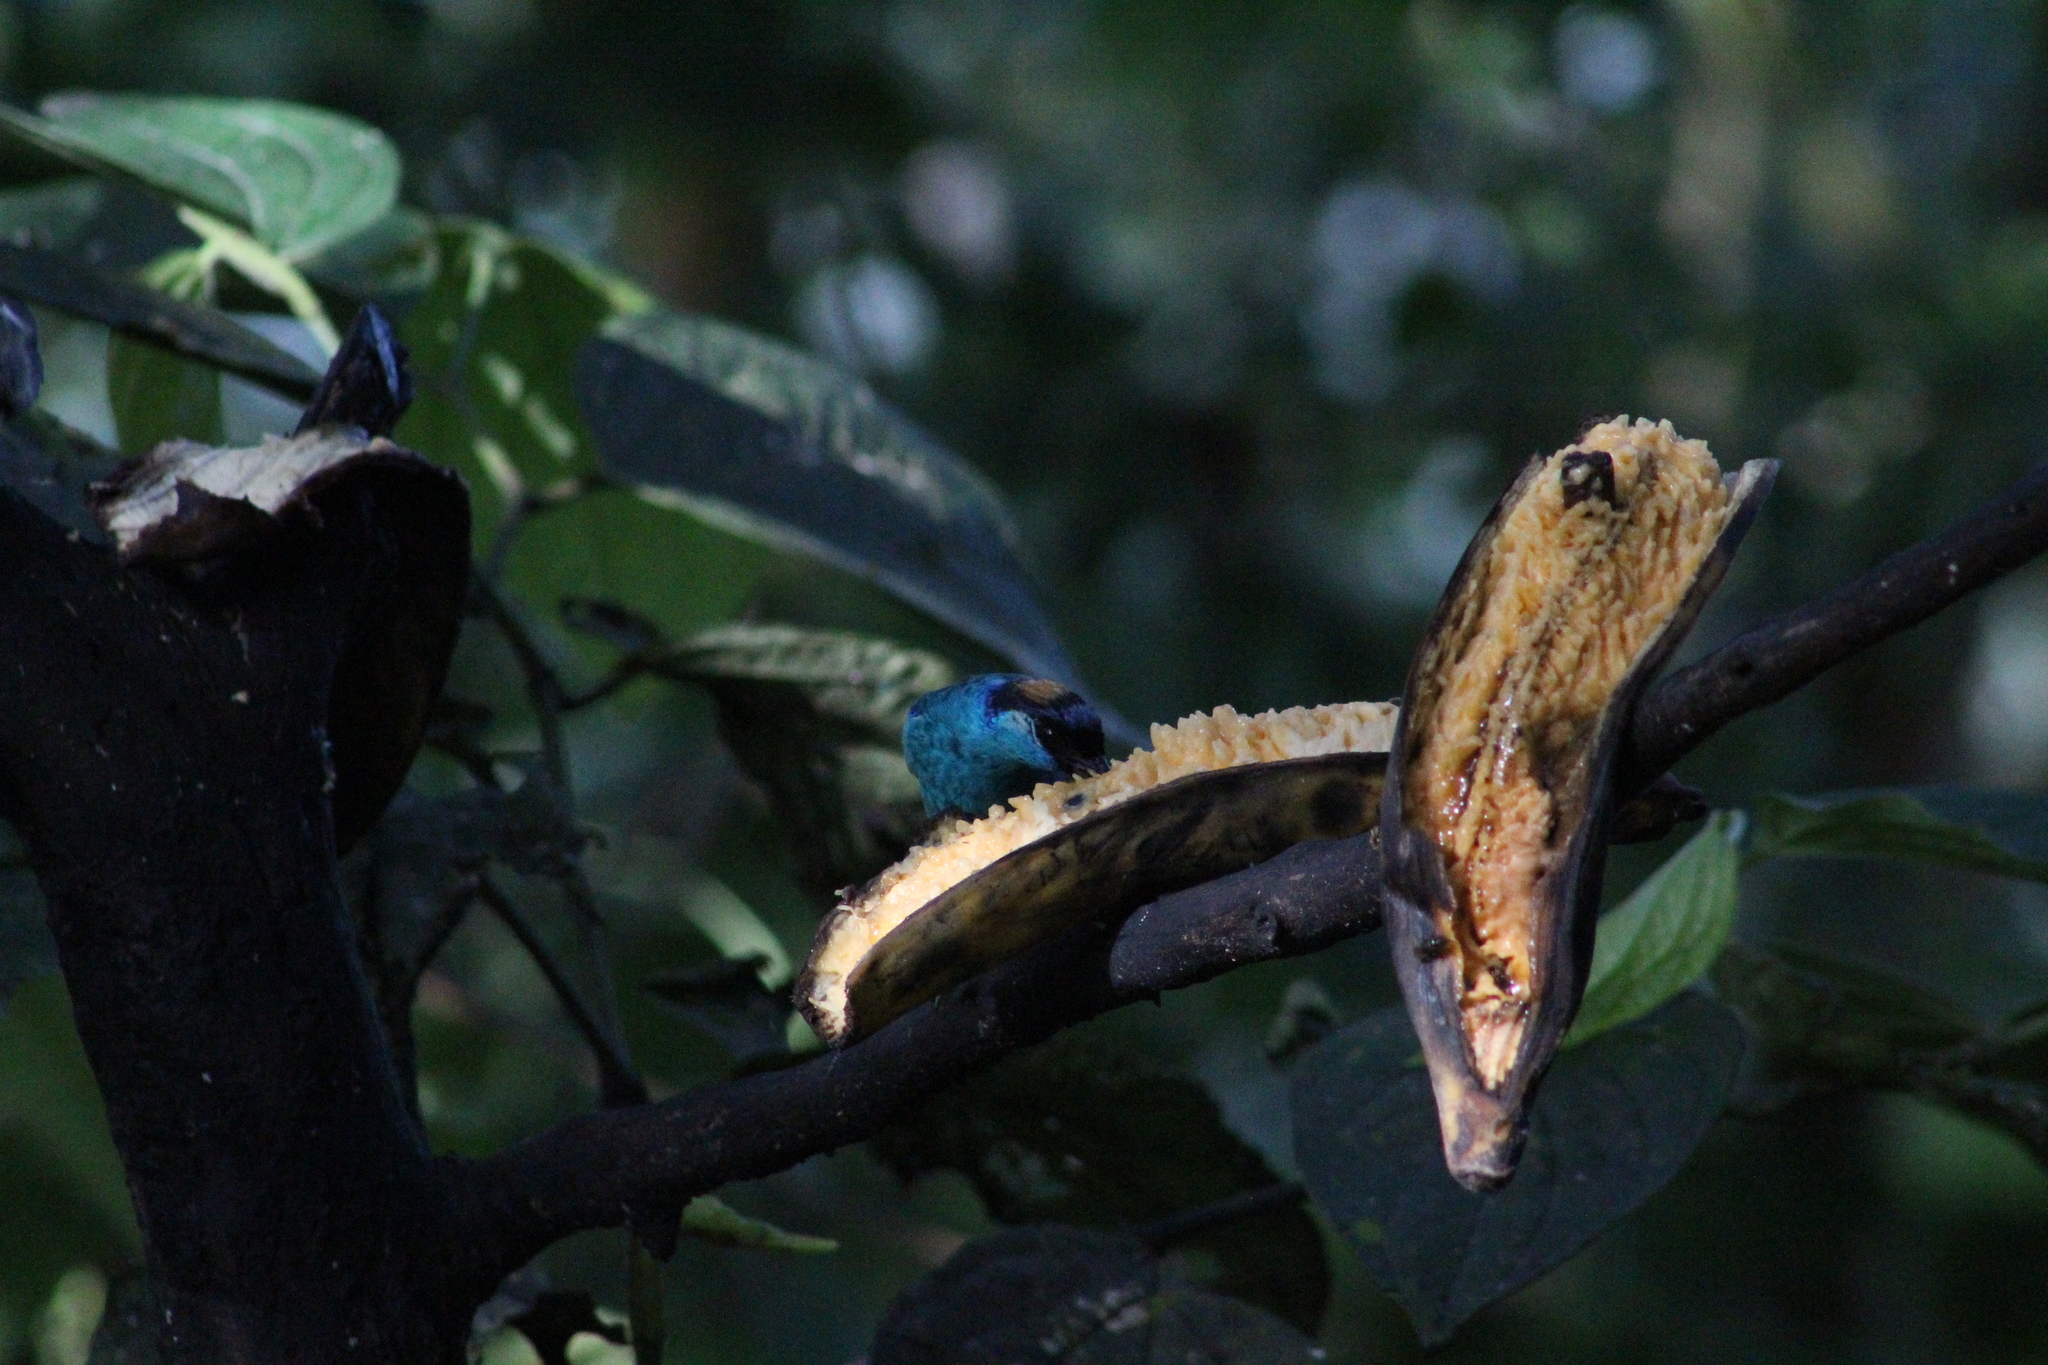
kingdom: Animalia
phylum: Chordata
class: Aves
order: Passeriformes
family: Thraupidae
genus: Chalcothraupis
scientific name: Chalcothraupis ruficervix
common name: Golden-naped tanager
